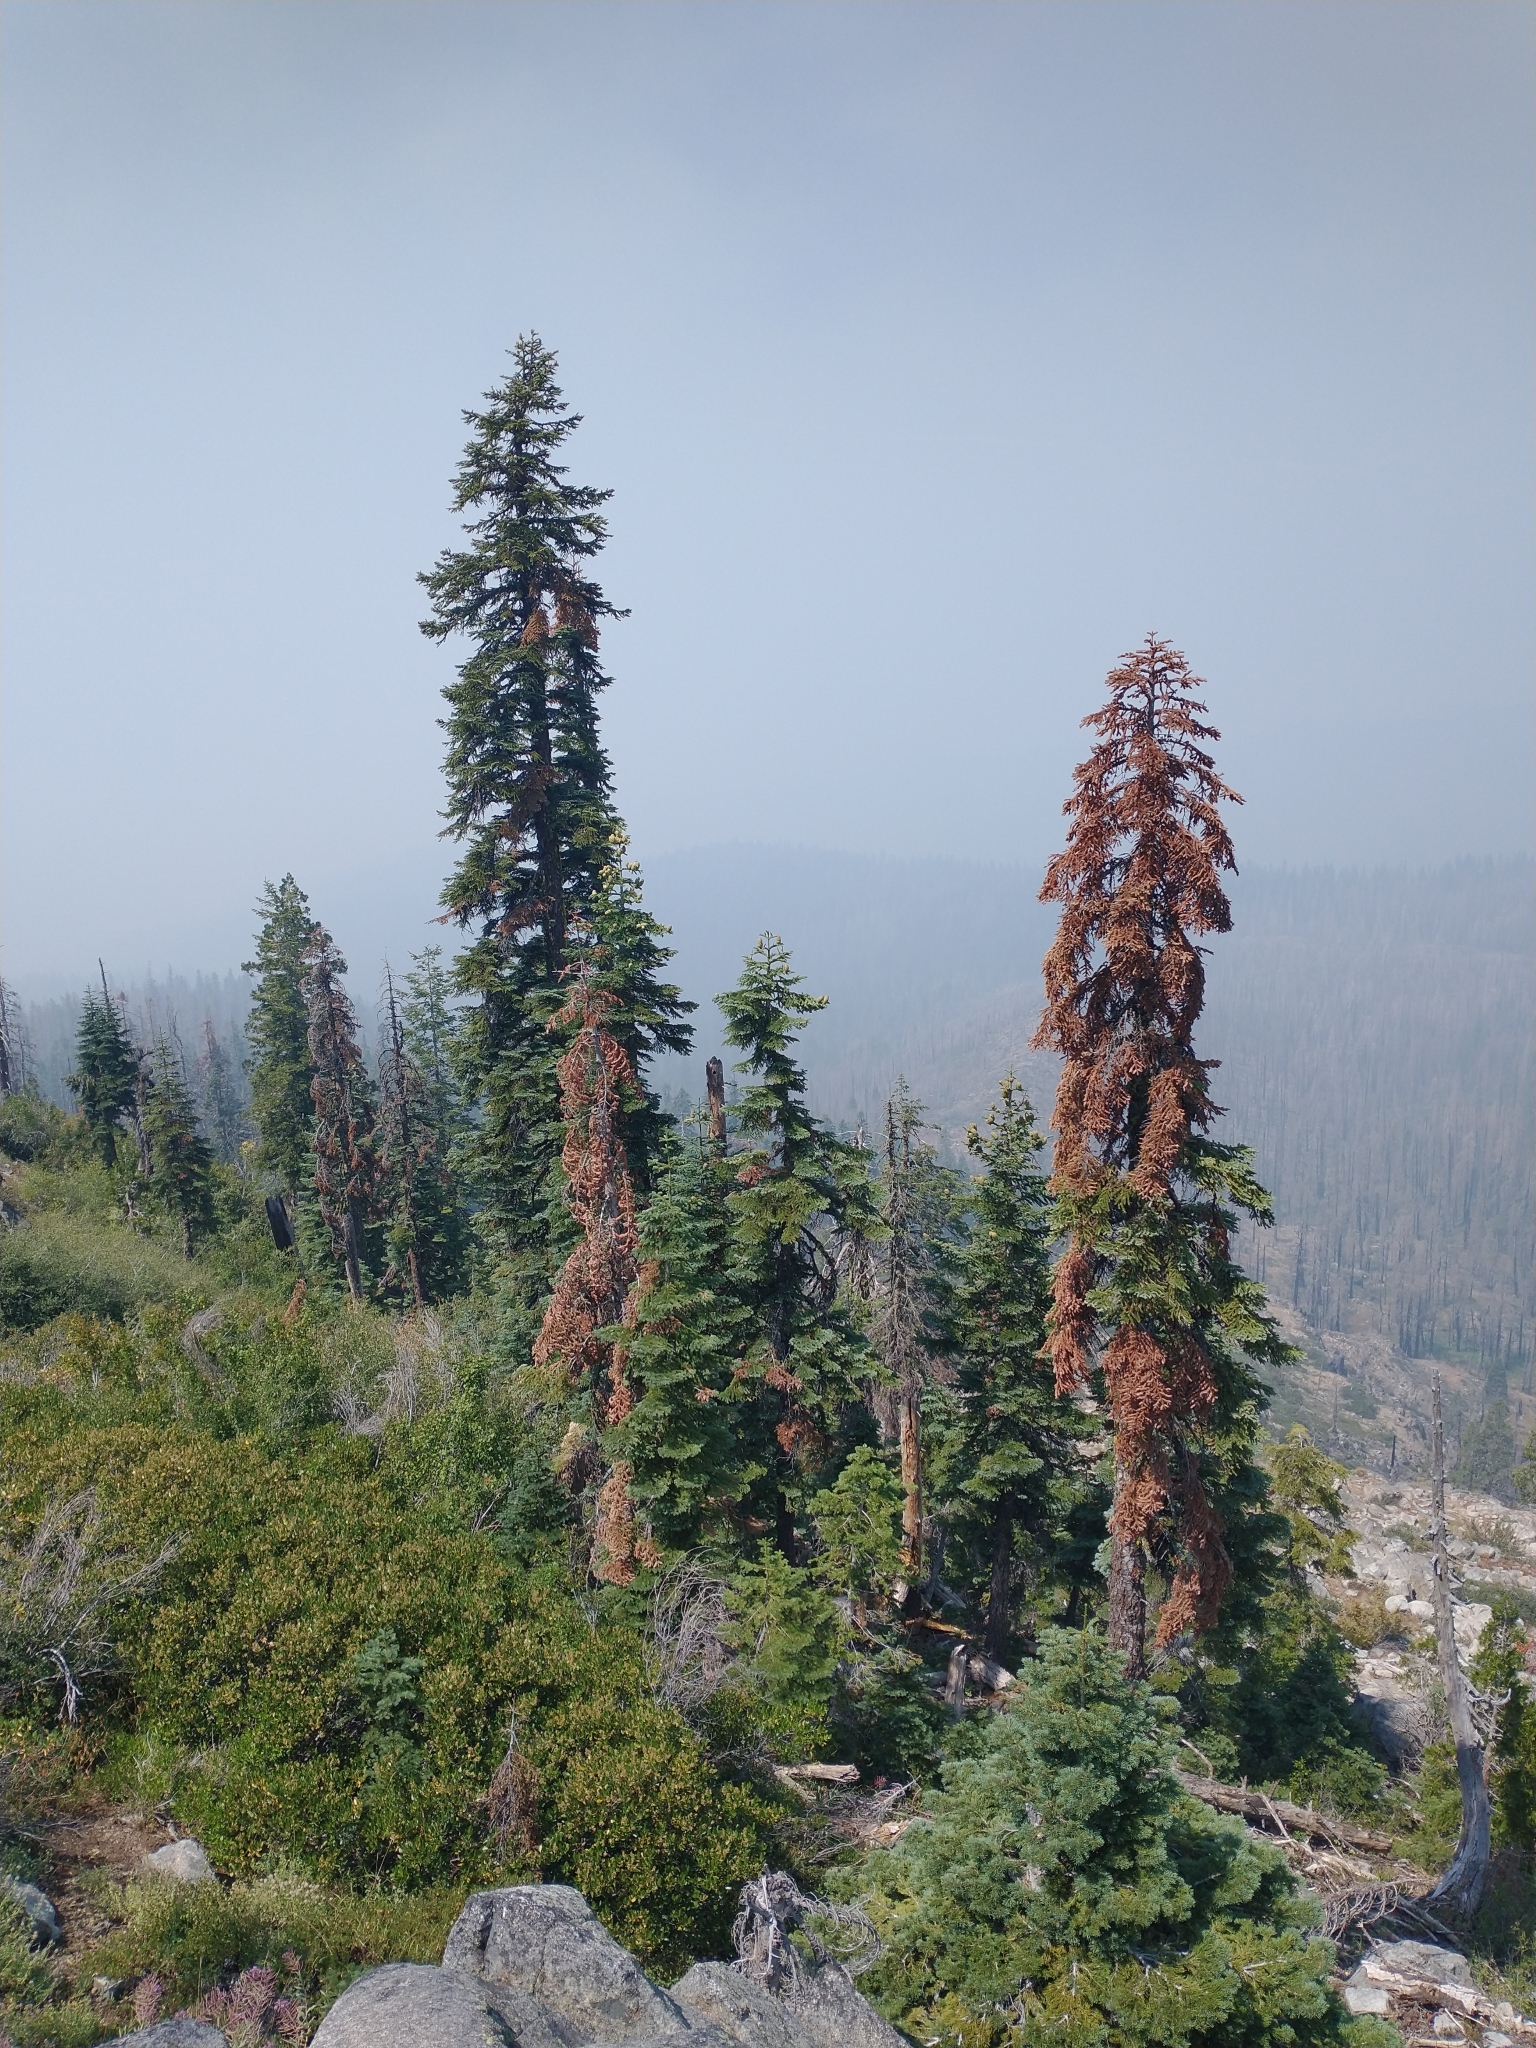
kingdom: Plantae
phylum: Tracheophyta
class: Pinopsida
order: Pinales
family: Pinaceae
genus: Abies
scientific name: Abies magnifica bis
